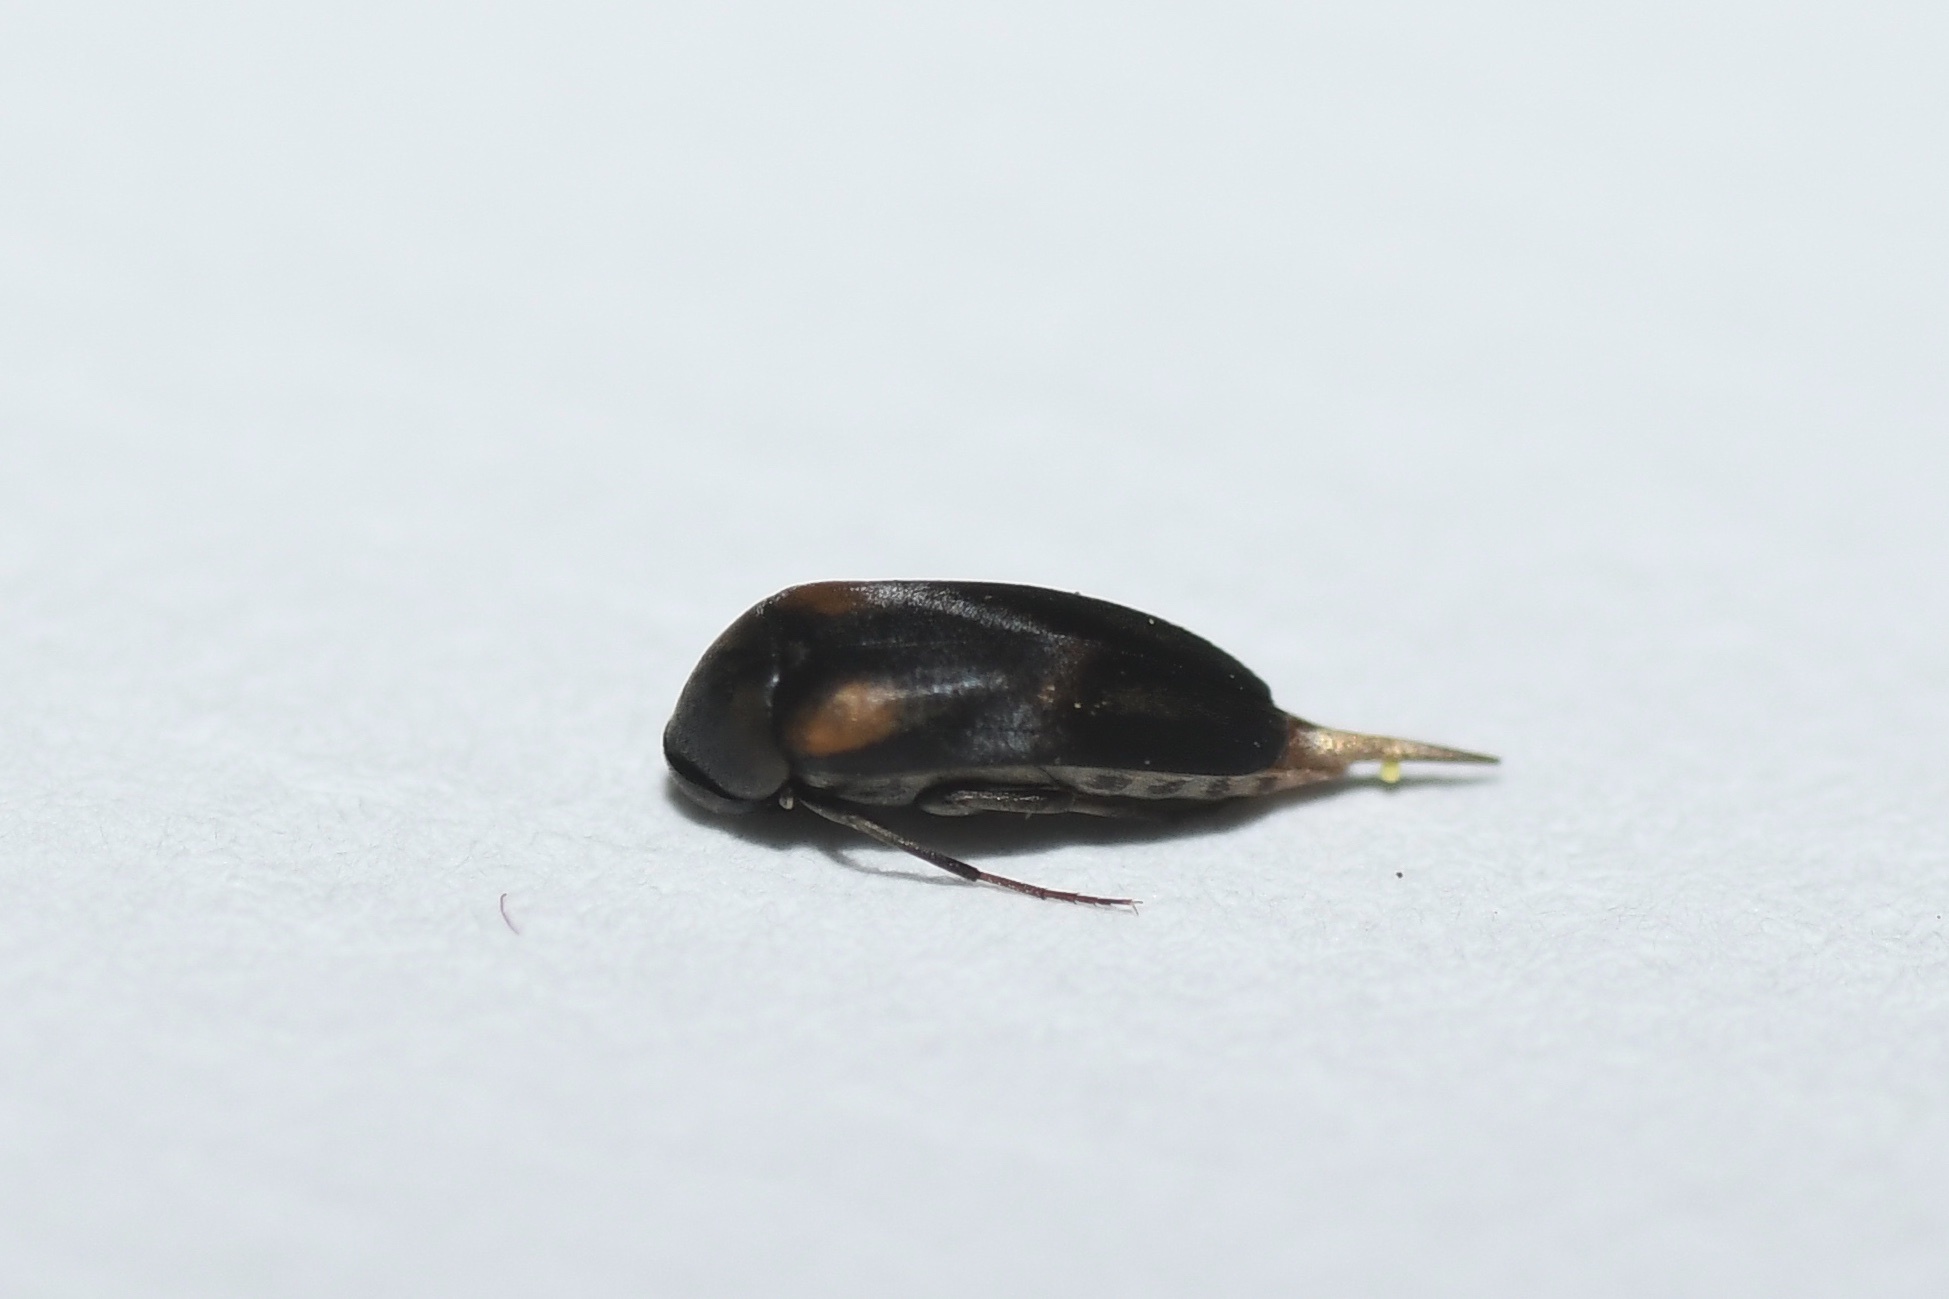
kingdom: Animalia
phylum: Arthropoda
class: Insecta
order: Coleoptera
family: Mordellidae
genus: Mordellochroa
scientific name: Mordellochroa scapularis
